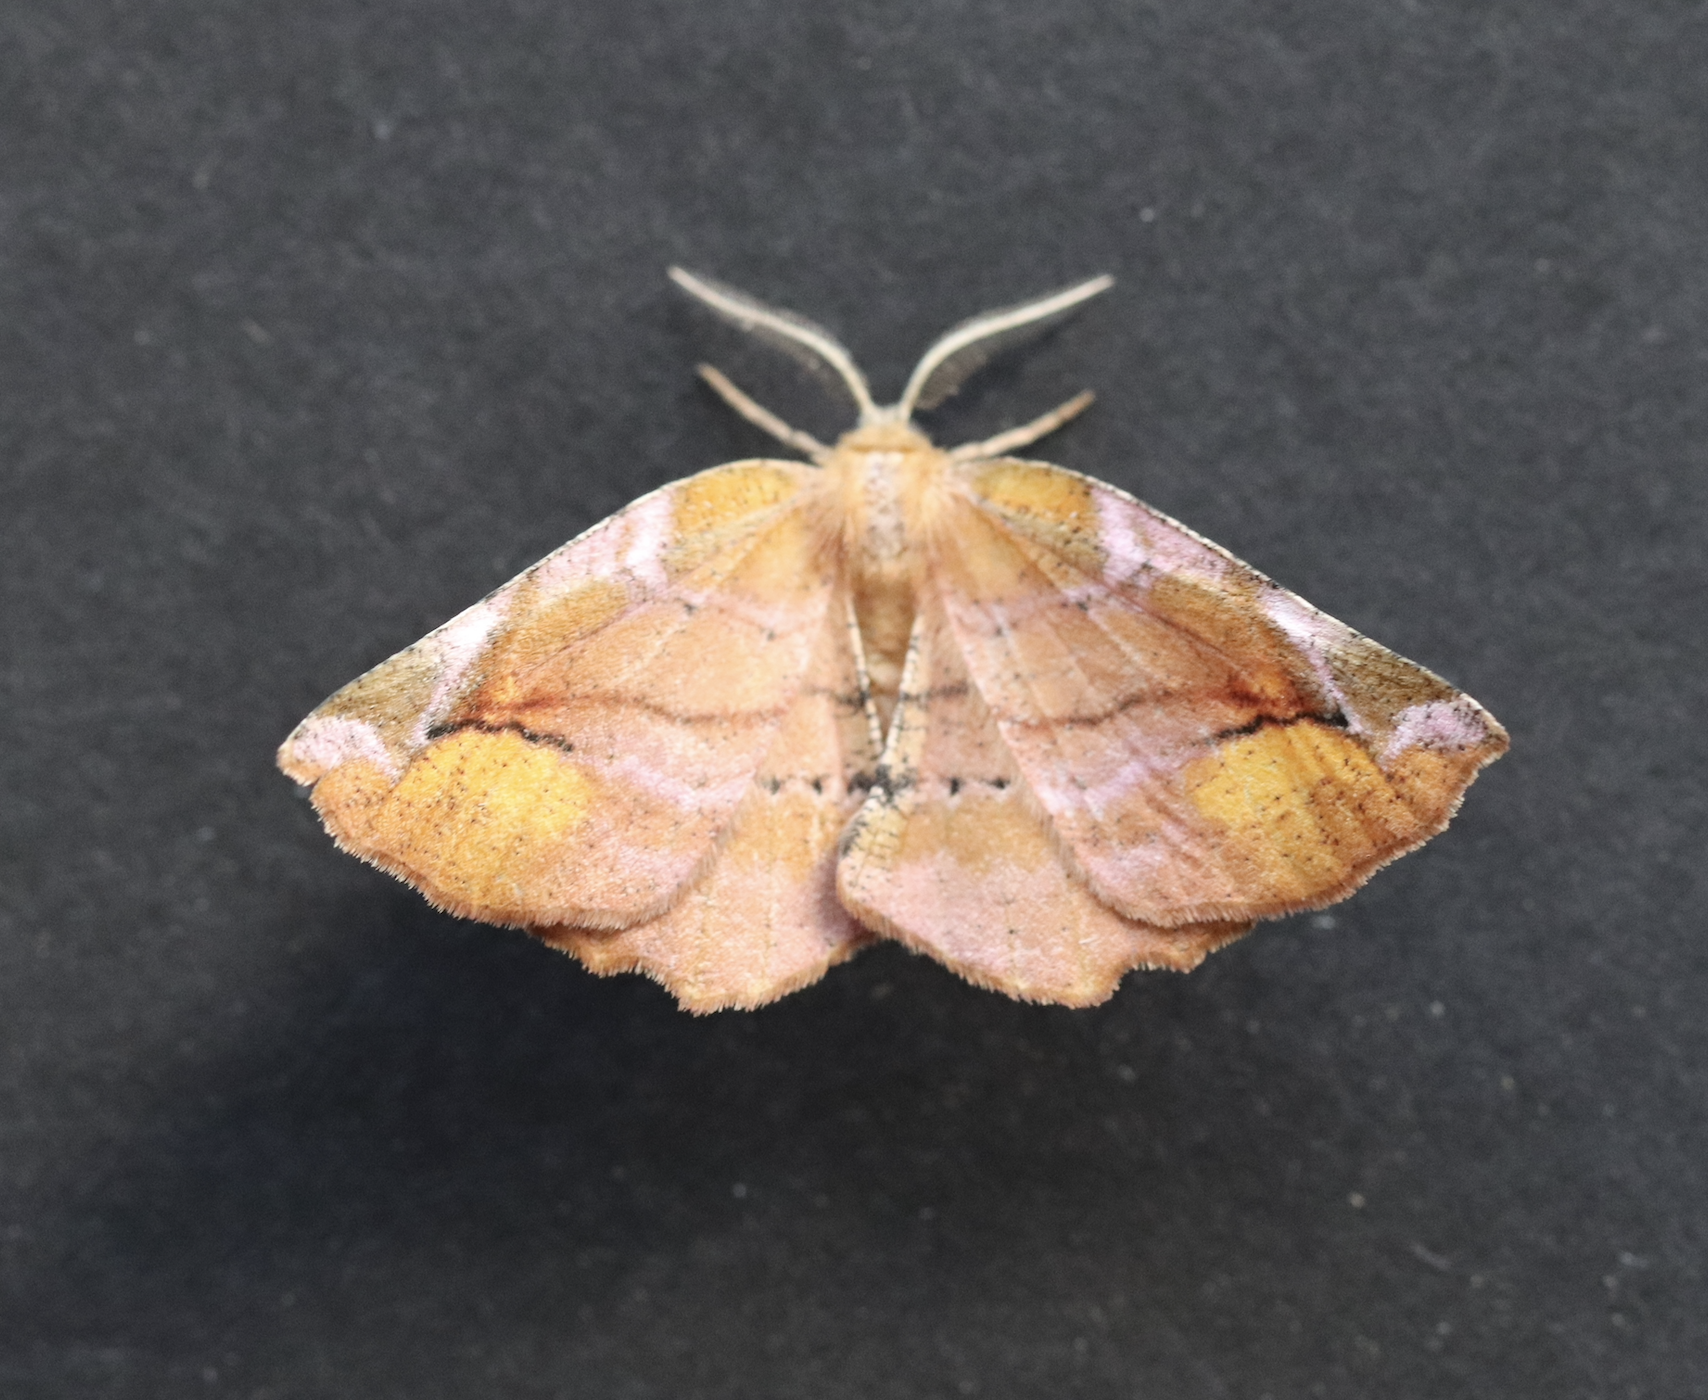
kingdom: Animalia
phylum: Arthropoda
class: Insecta
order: Lepidoptera
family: Geometridae
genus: Apeira
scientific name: Apeira syringaria
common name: Lilac beauty
